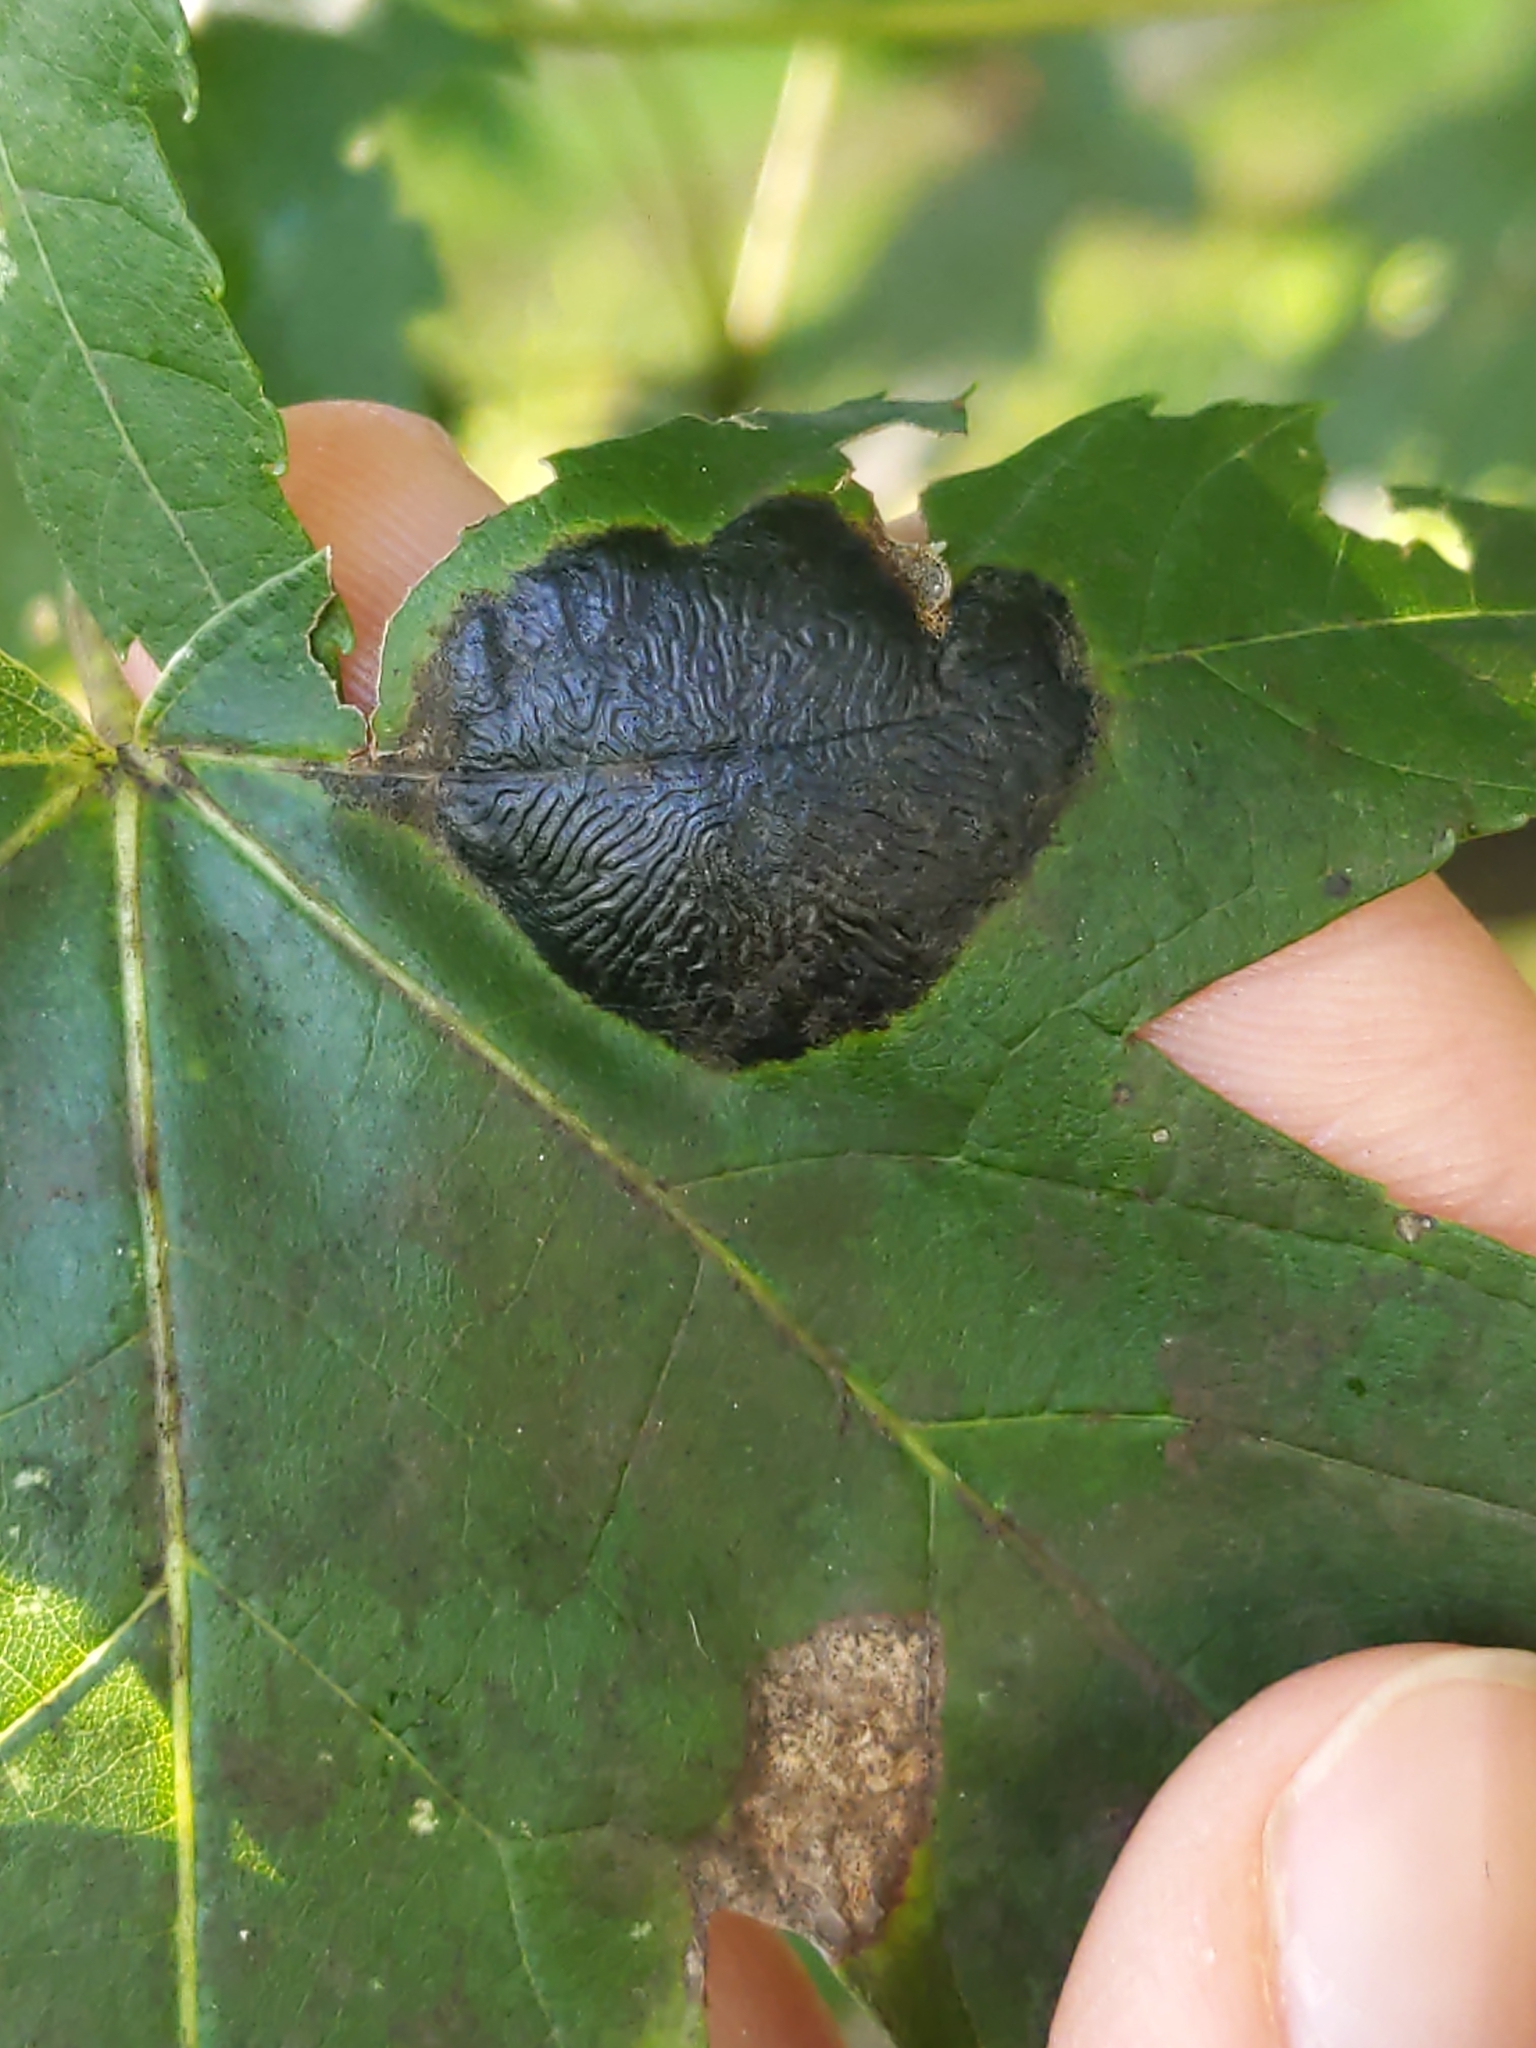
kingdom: Fungi
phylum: Ascomycota
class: Leotiomycetes
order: Rhytismatales
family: Rhytismataceae
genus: Rhytisma
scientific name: Rhytisma americanum
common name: American tar spot
